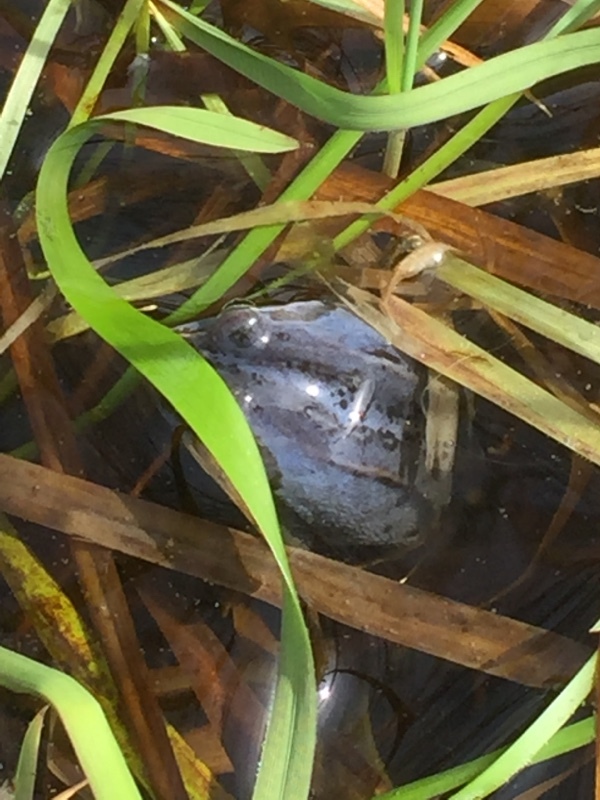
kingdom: Animalia
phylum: Chordata
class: Amphibia
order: Anura
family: Ranidae
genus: Rana
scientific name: Rana arvalis
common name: Moor frog
